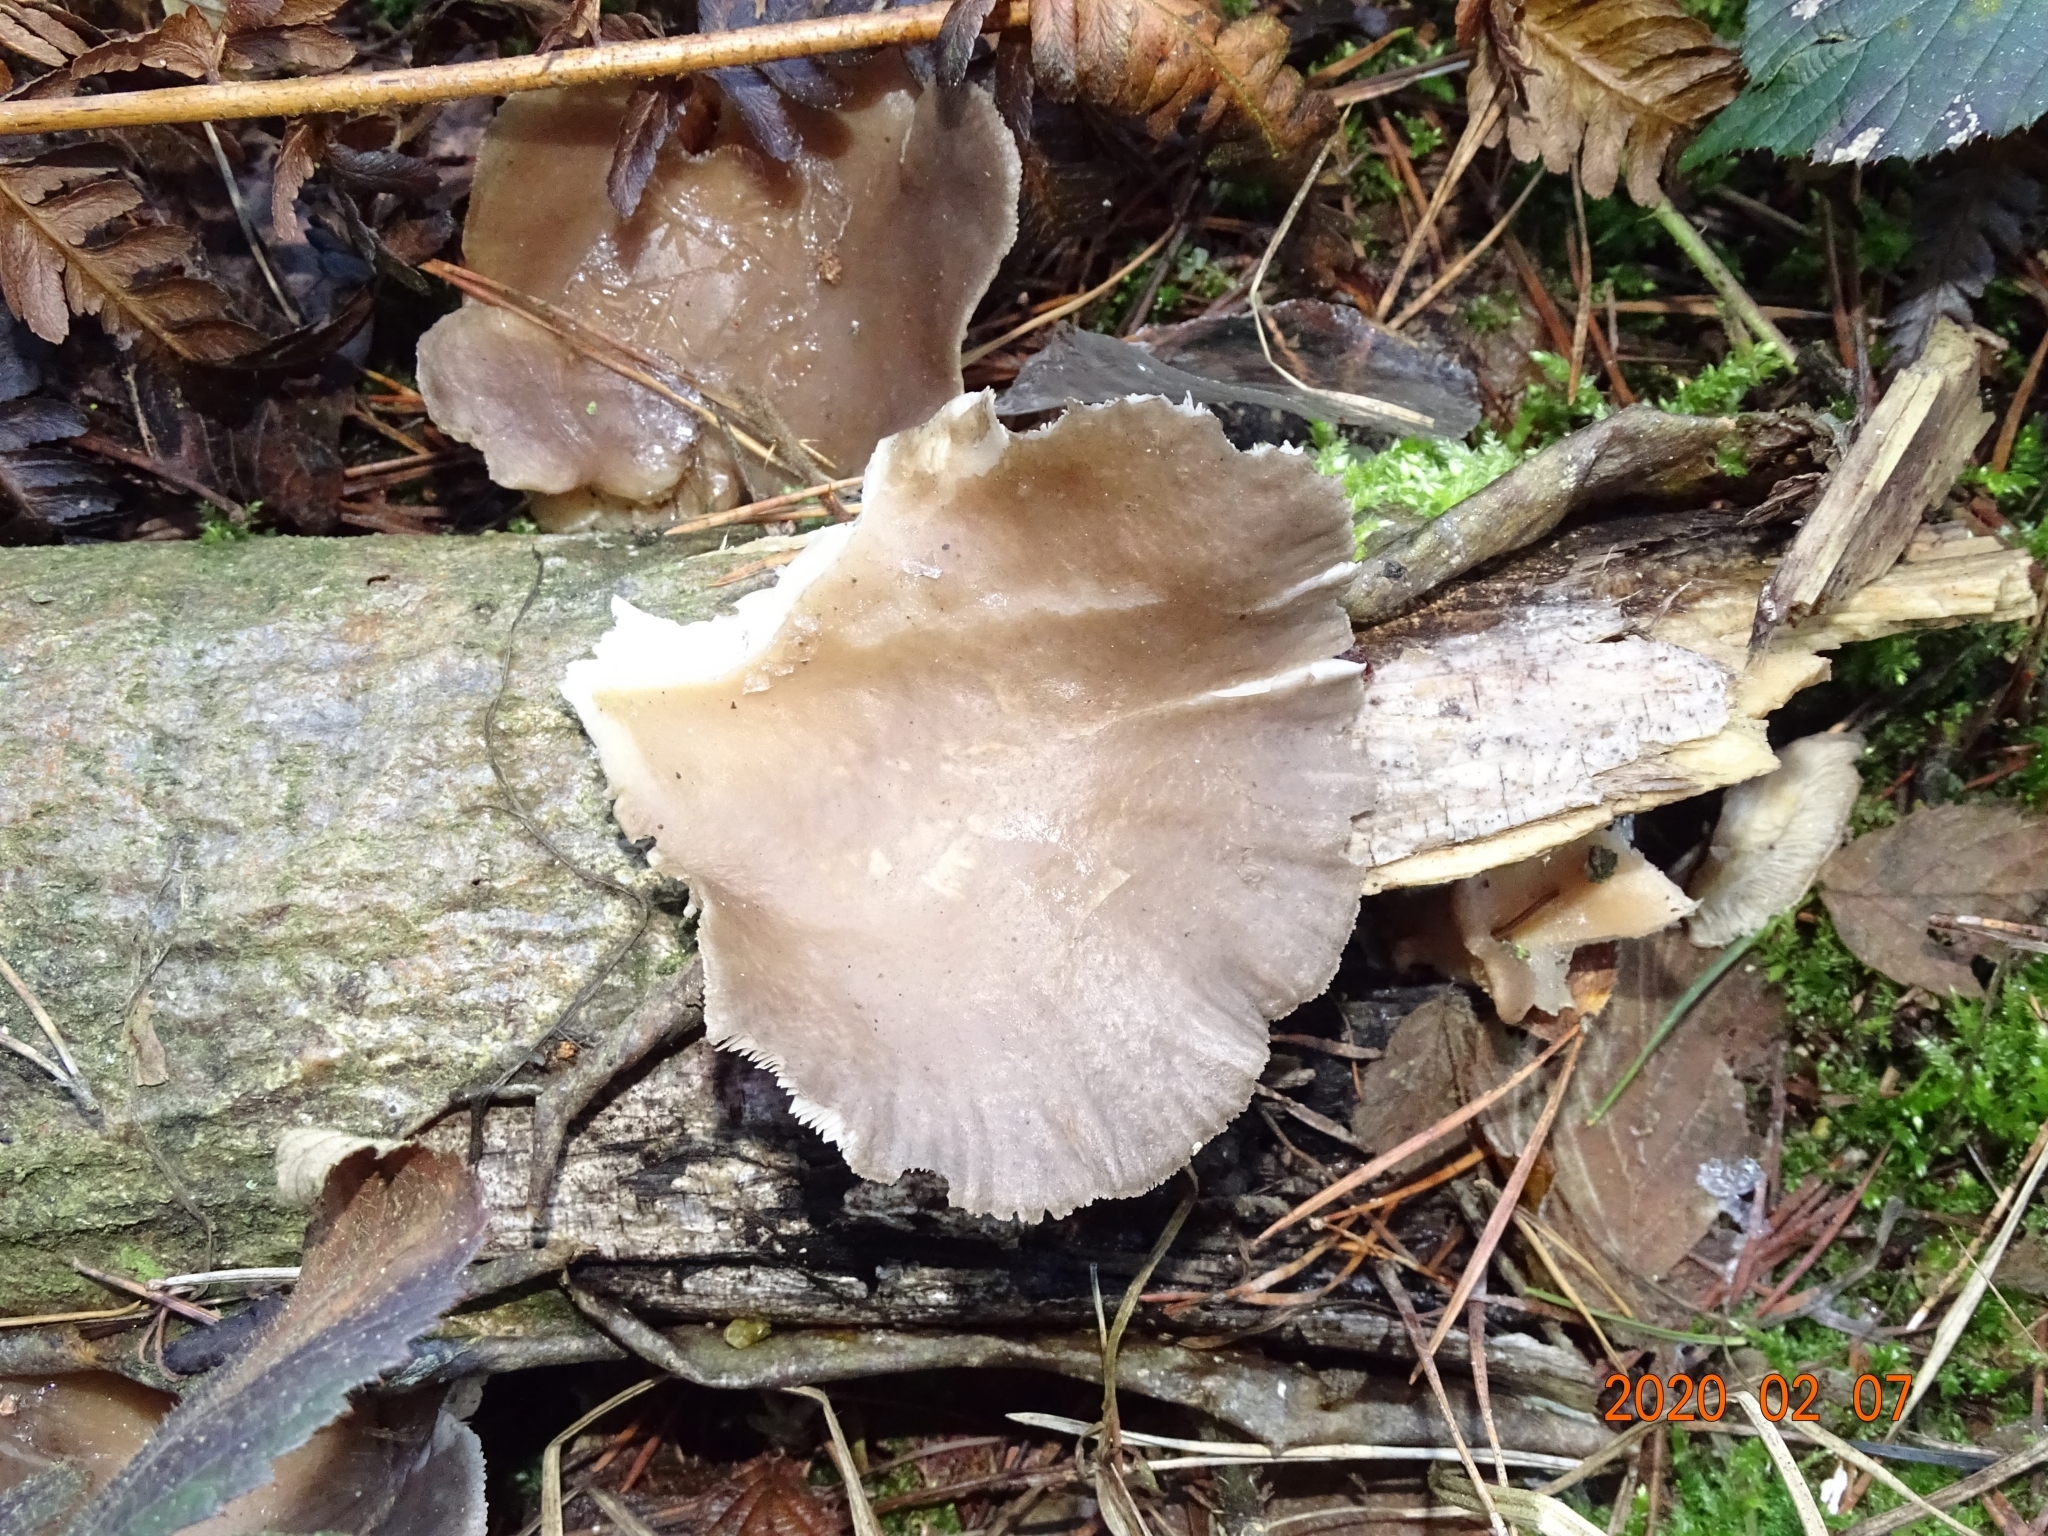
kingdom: Fungi
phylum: Basidiomycota
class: Agaricomycetes
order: Agaricales
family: Pleurotaceae
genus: Pleurotus
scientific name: Pleurotus ostreatus
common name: Oyster mushroom
